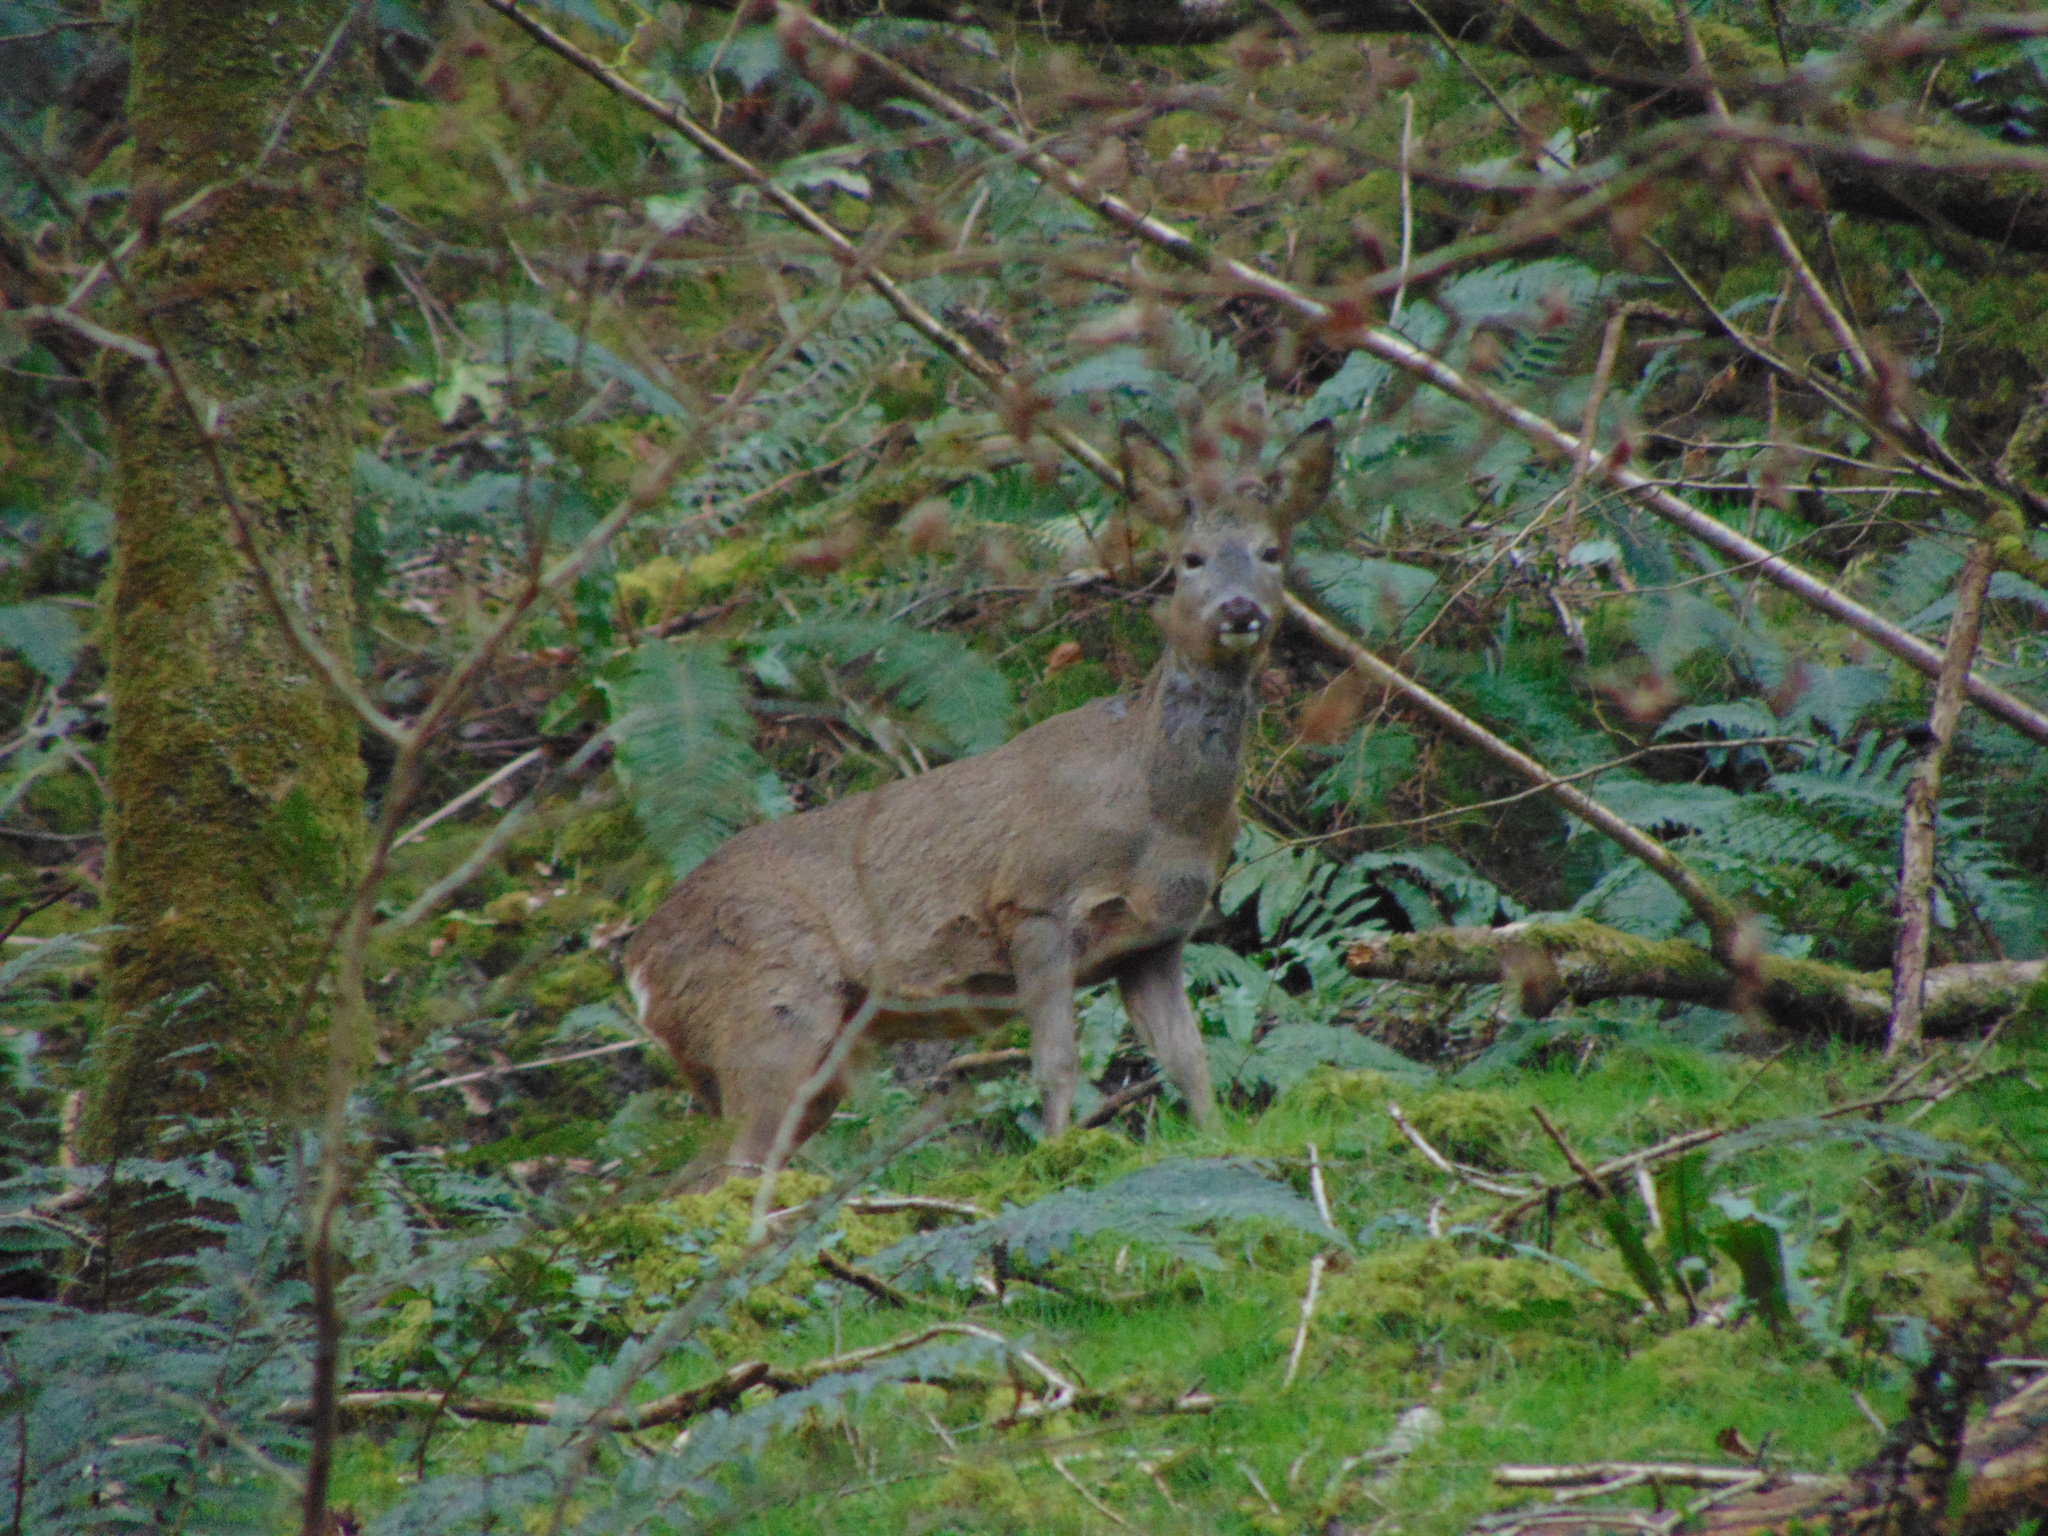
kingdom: Animalia
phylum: Chordata
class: Mammalia
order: Artiodactyla
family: Cervidae
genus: Capreolus
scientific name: Capreolus capreolus
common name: Western roe deer
